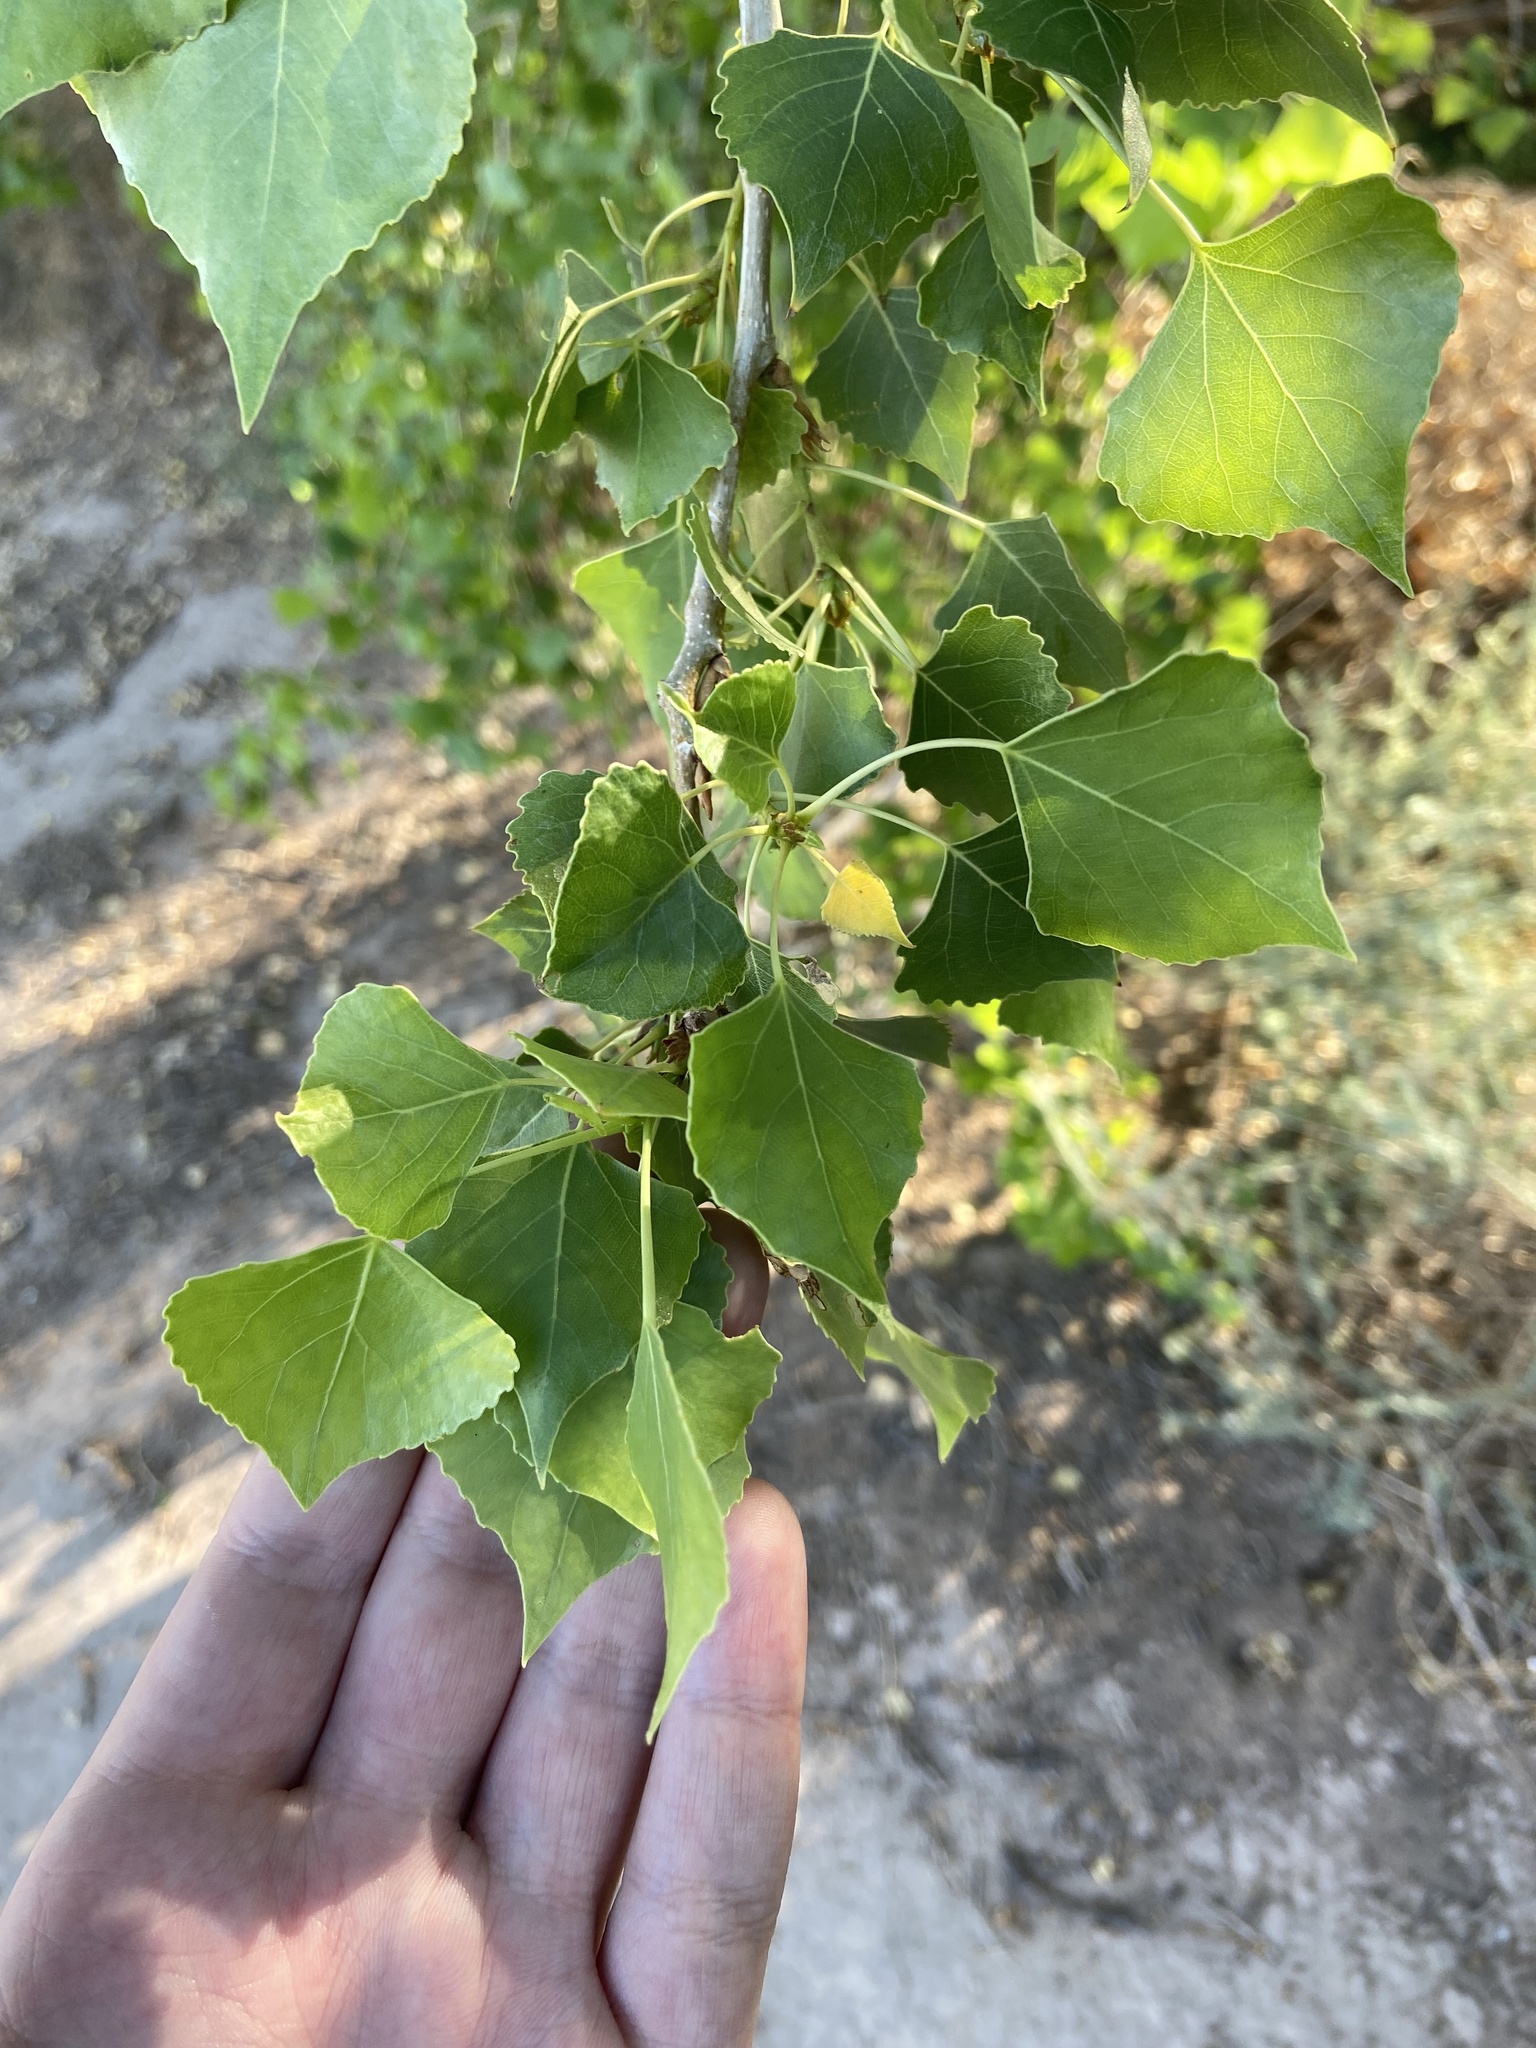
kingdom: Plantae
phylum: Tracheophyta
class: Magnoliopsida
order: Malpighiales
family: Salicaceae
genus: Populus
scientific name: Populus fremontii
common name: Fremont's cottonwood
